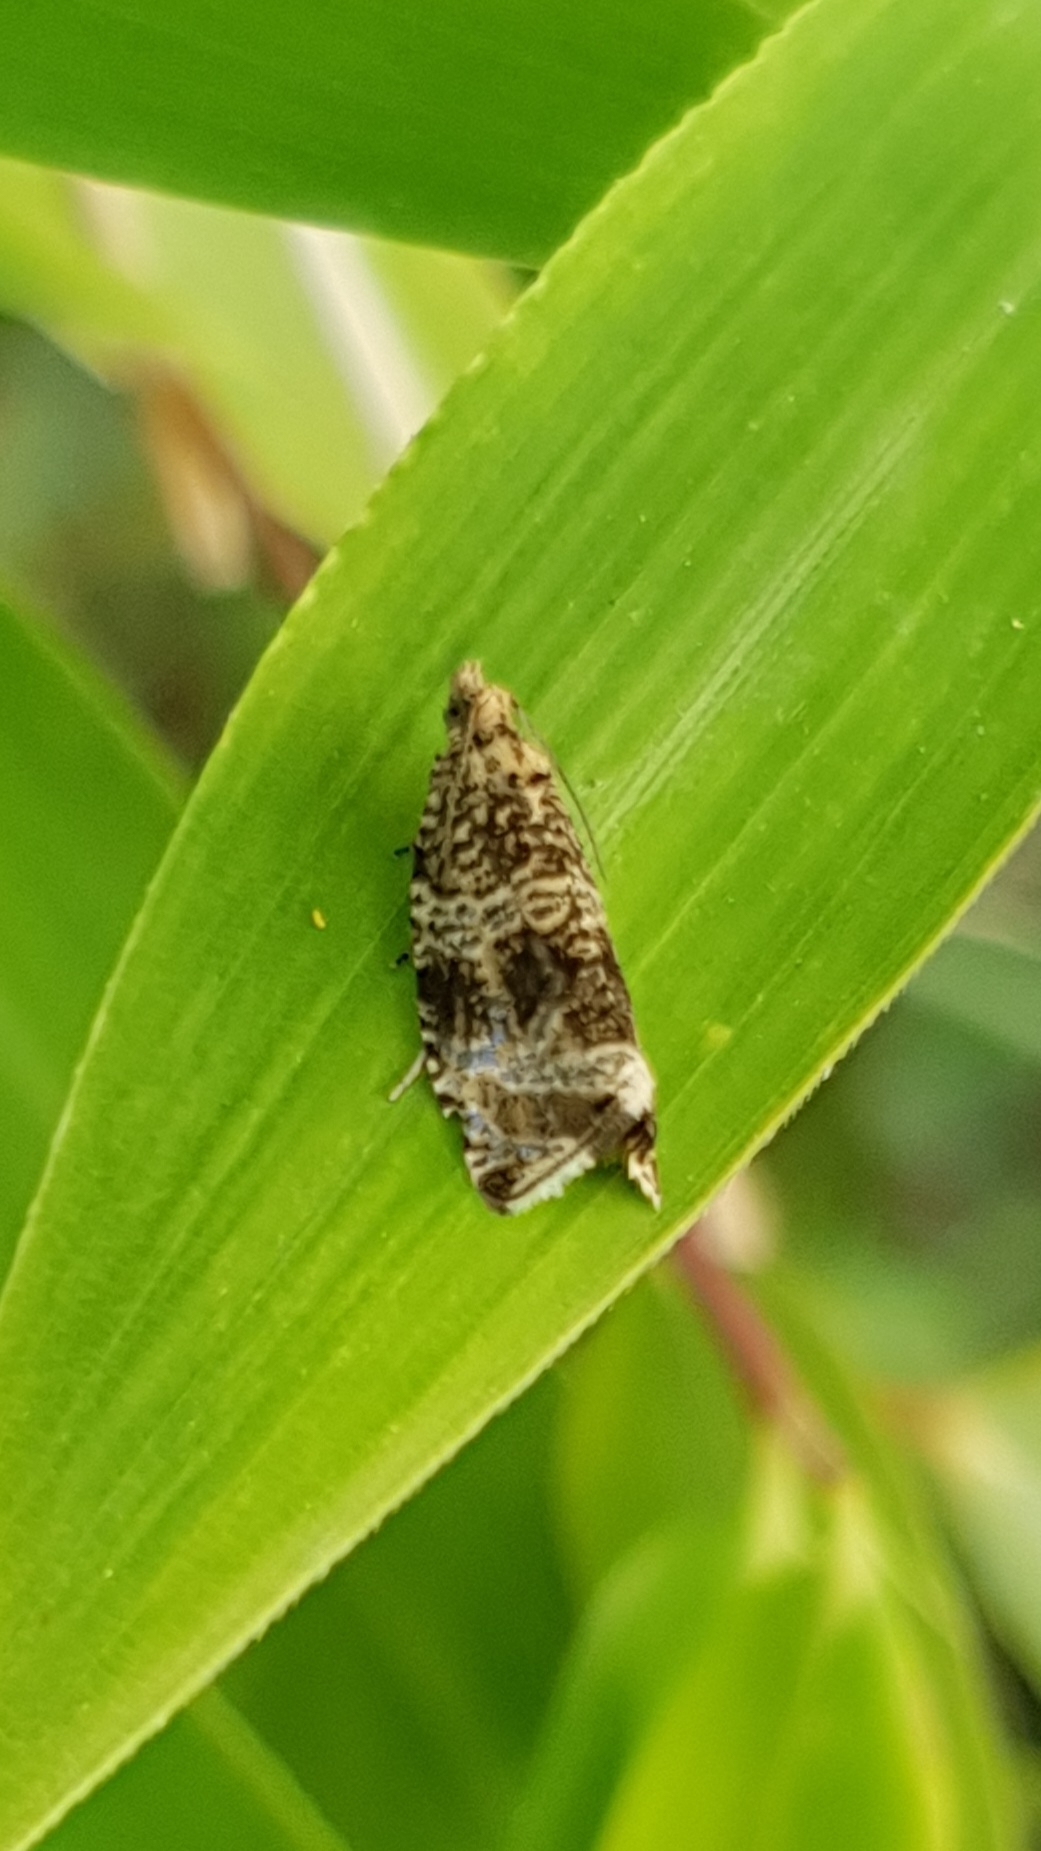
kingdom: Animalia
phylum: Arthropoda
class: Insecta
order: Lepidoptera
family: Tortricidae
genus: Syricoris
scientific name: Syricoris lacunana
